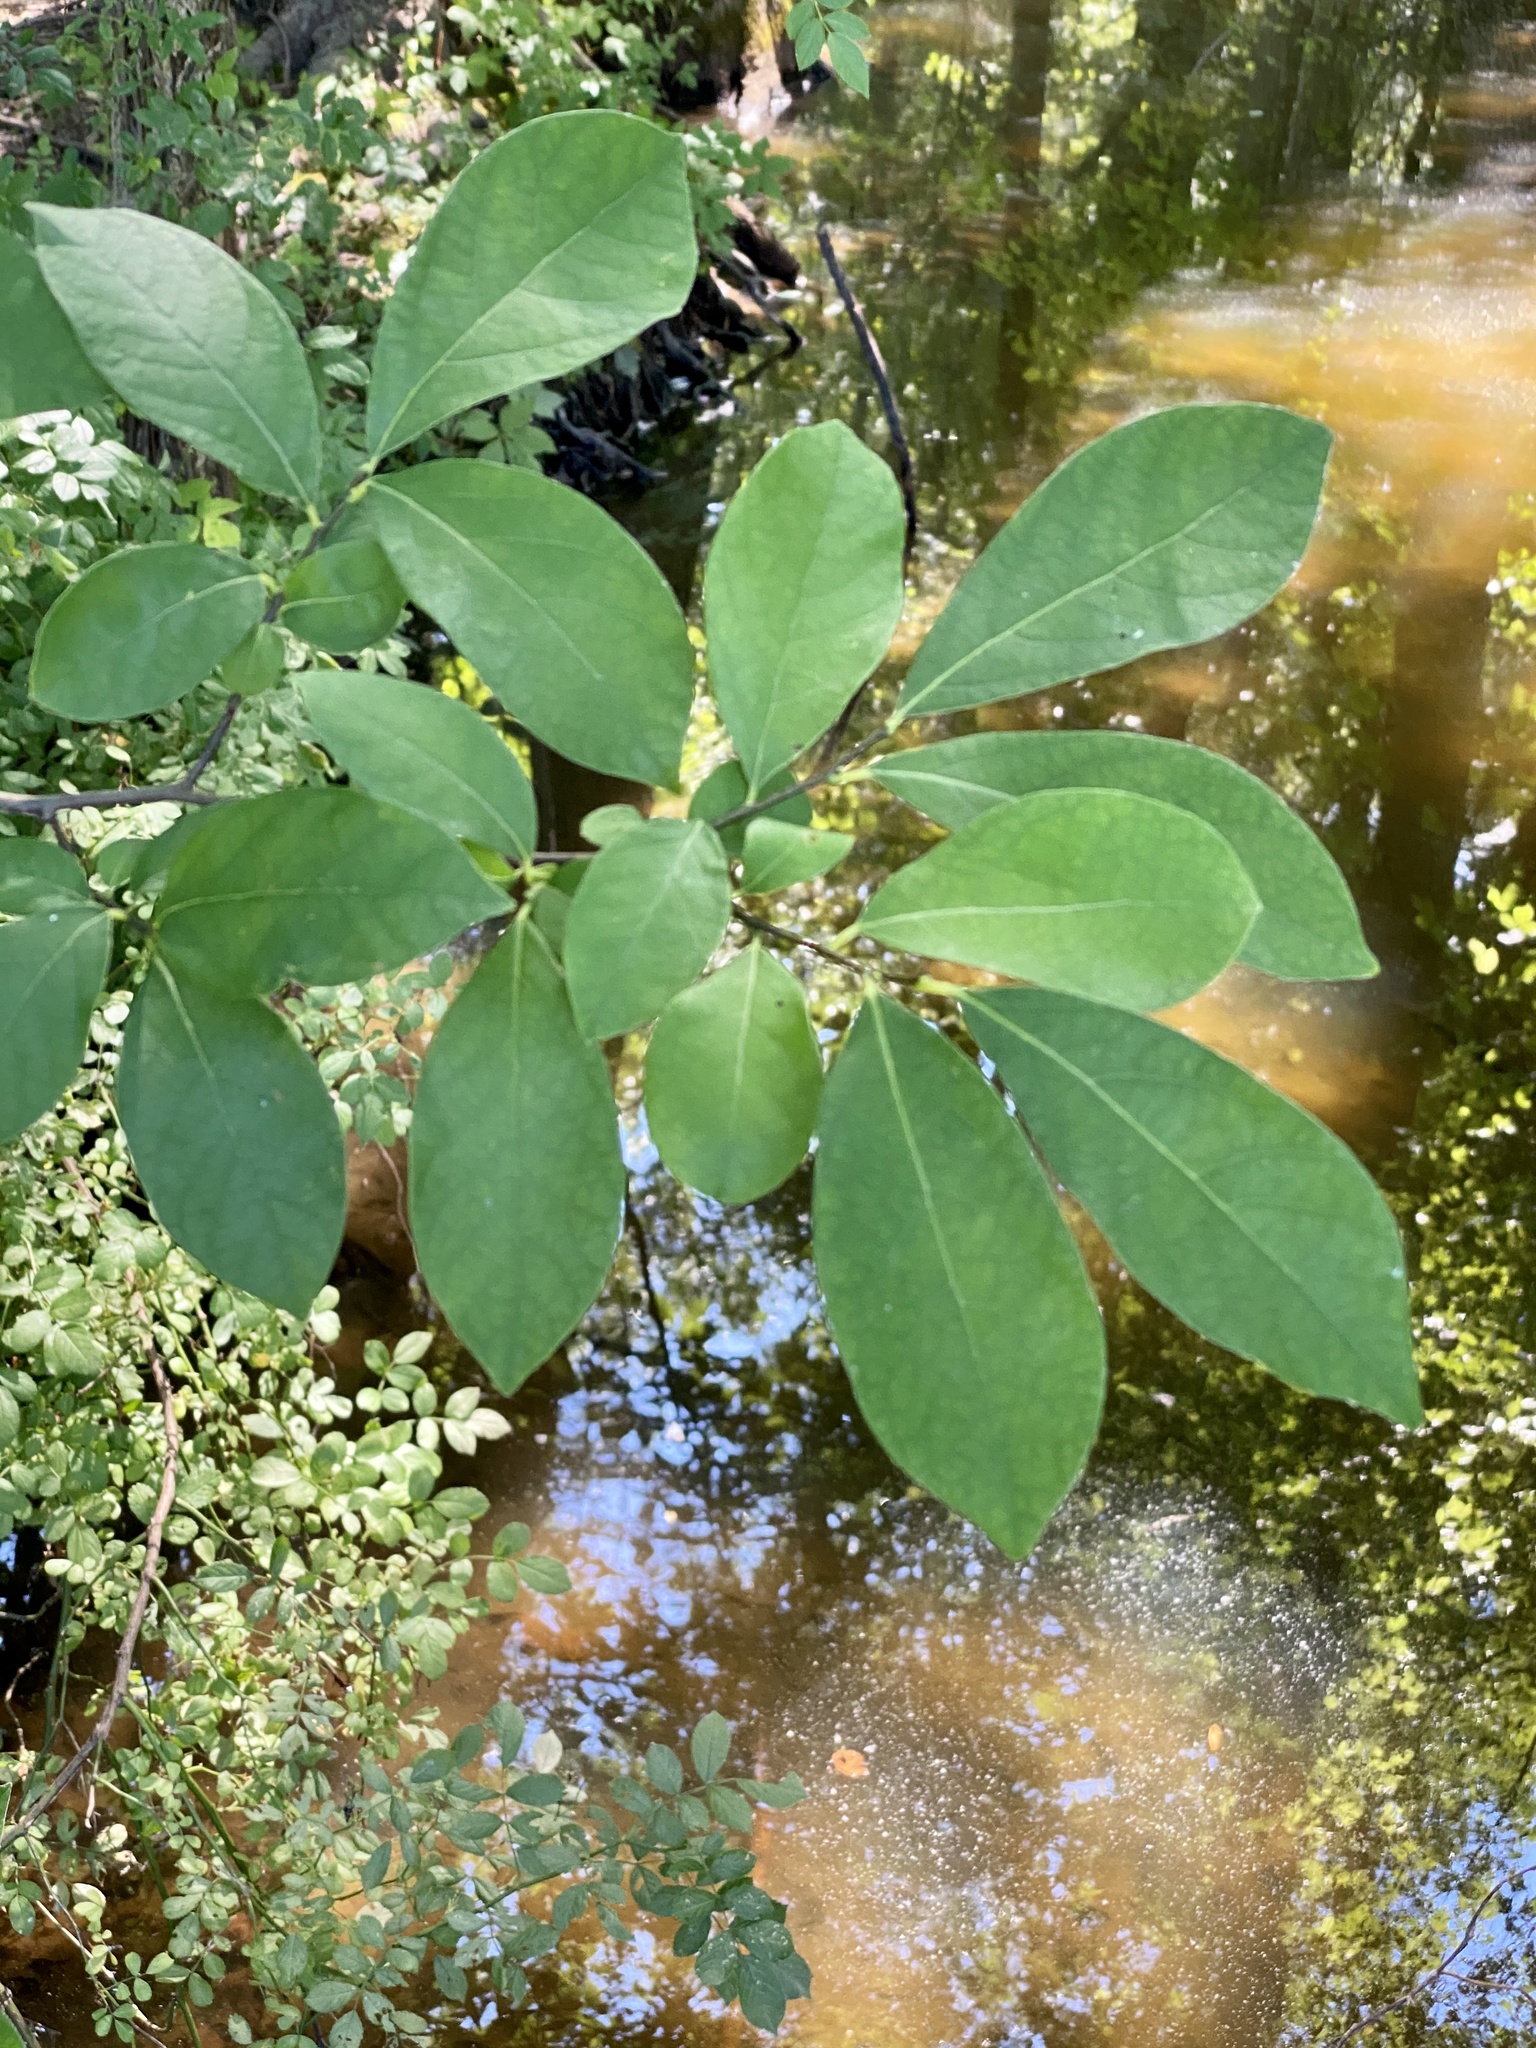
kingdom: Plantae
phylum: Tracheophyta
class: Magnoliopsida
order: Laurales
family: Lauraceae
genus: Lindera
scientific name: Lindera benzoin
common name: Spicebush
